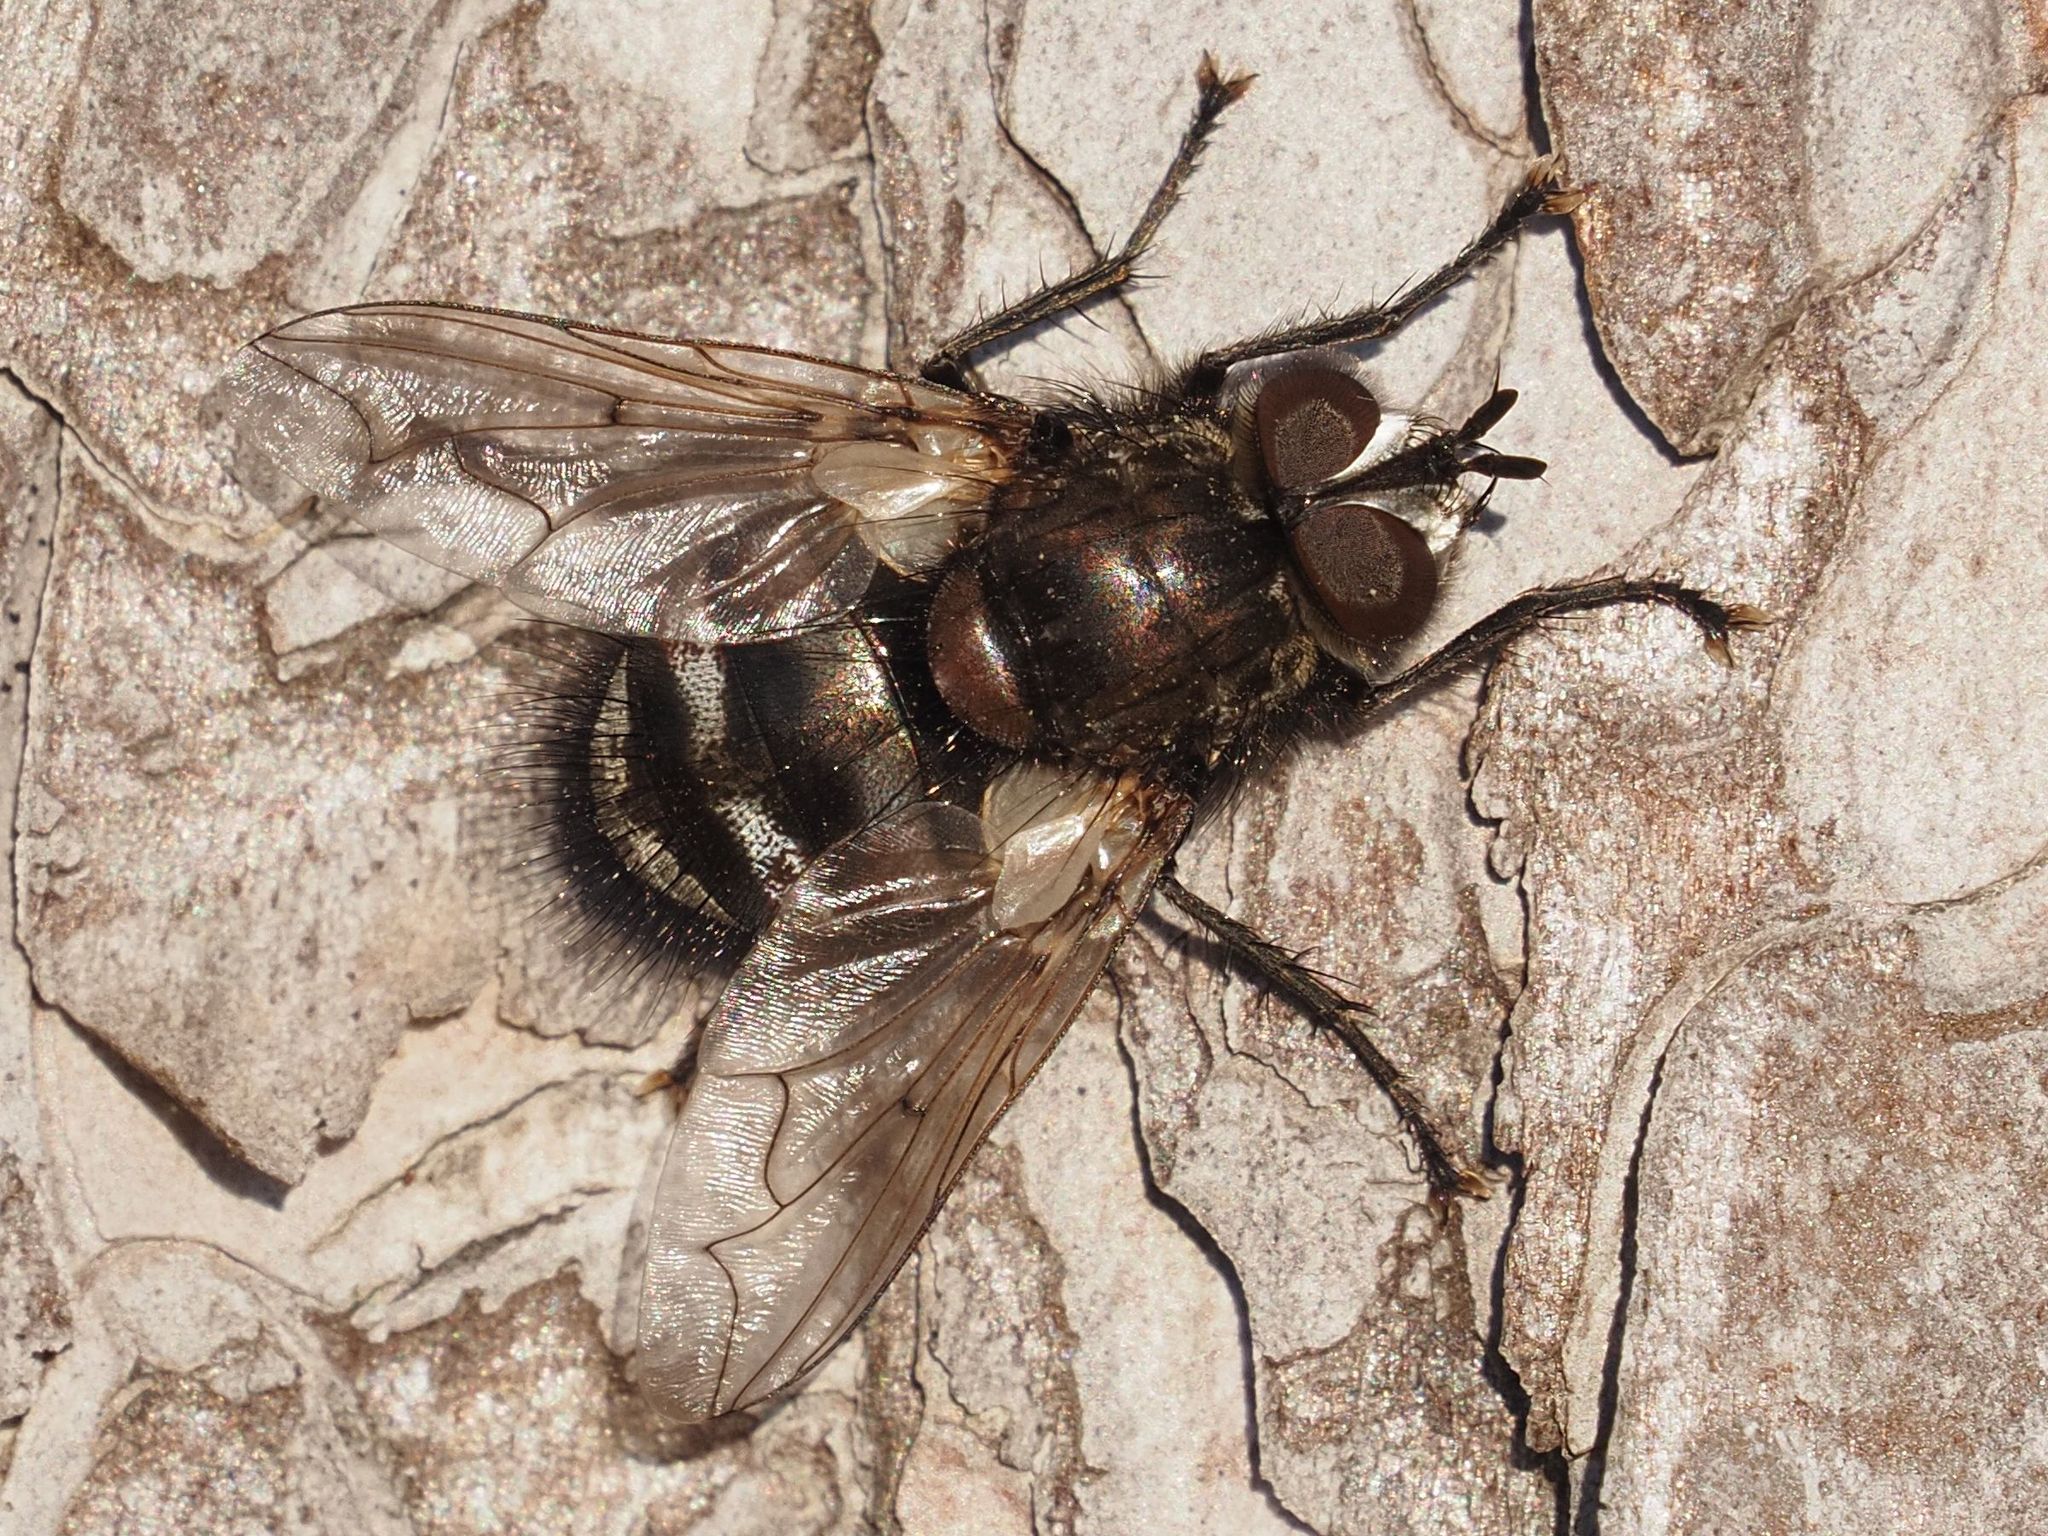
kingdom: Animalia
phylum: Arthropoda
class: Insecta
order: Diptera
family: Tachinidae
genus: Panzeria
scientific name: Panzeria puparum
